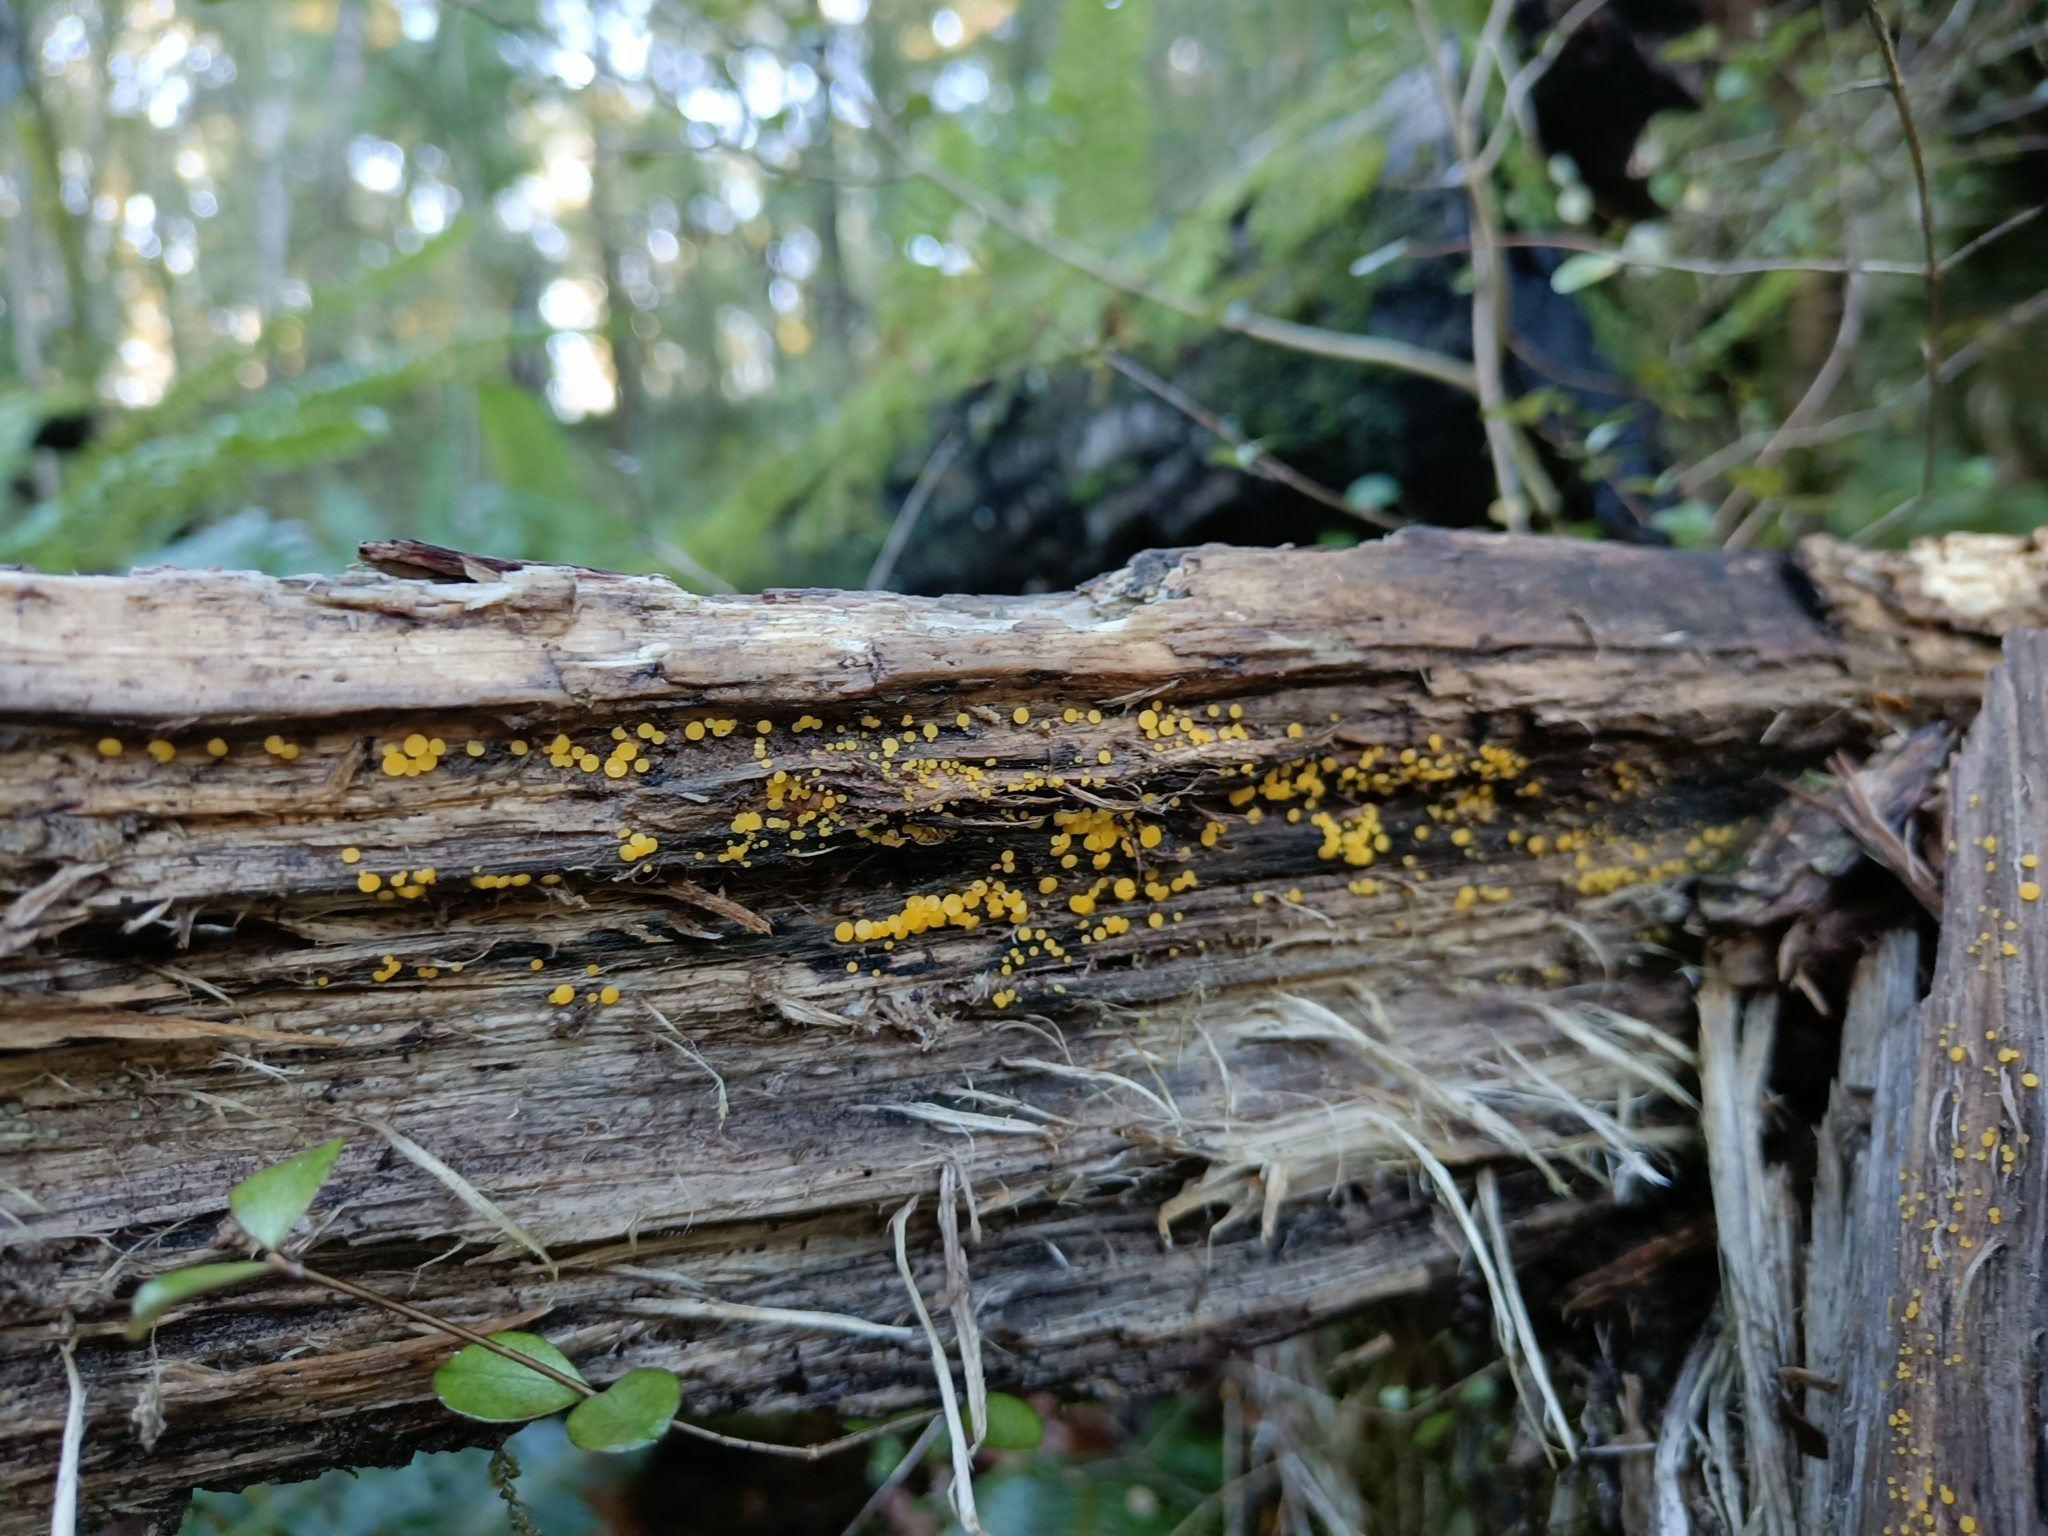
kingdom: Fungi
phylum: Ascomycota
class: Leotiomycetes
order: Helotiales
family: Pezizellaceae
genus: Calycina
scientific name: Calycina citrina
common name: Yellow fairy cups
